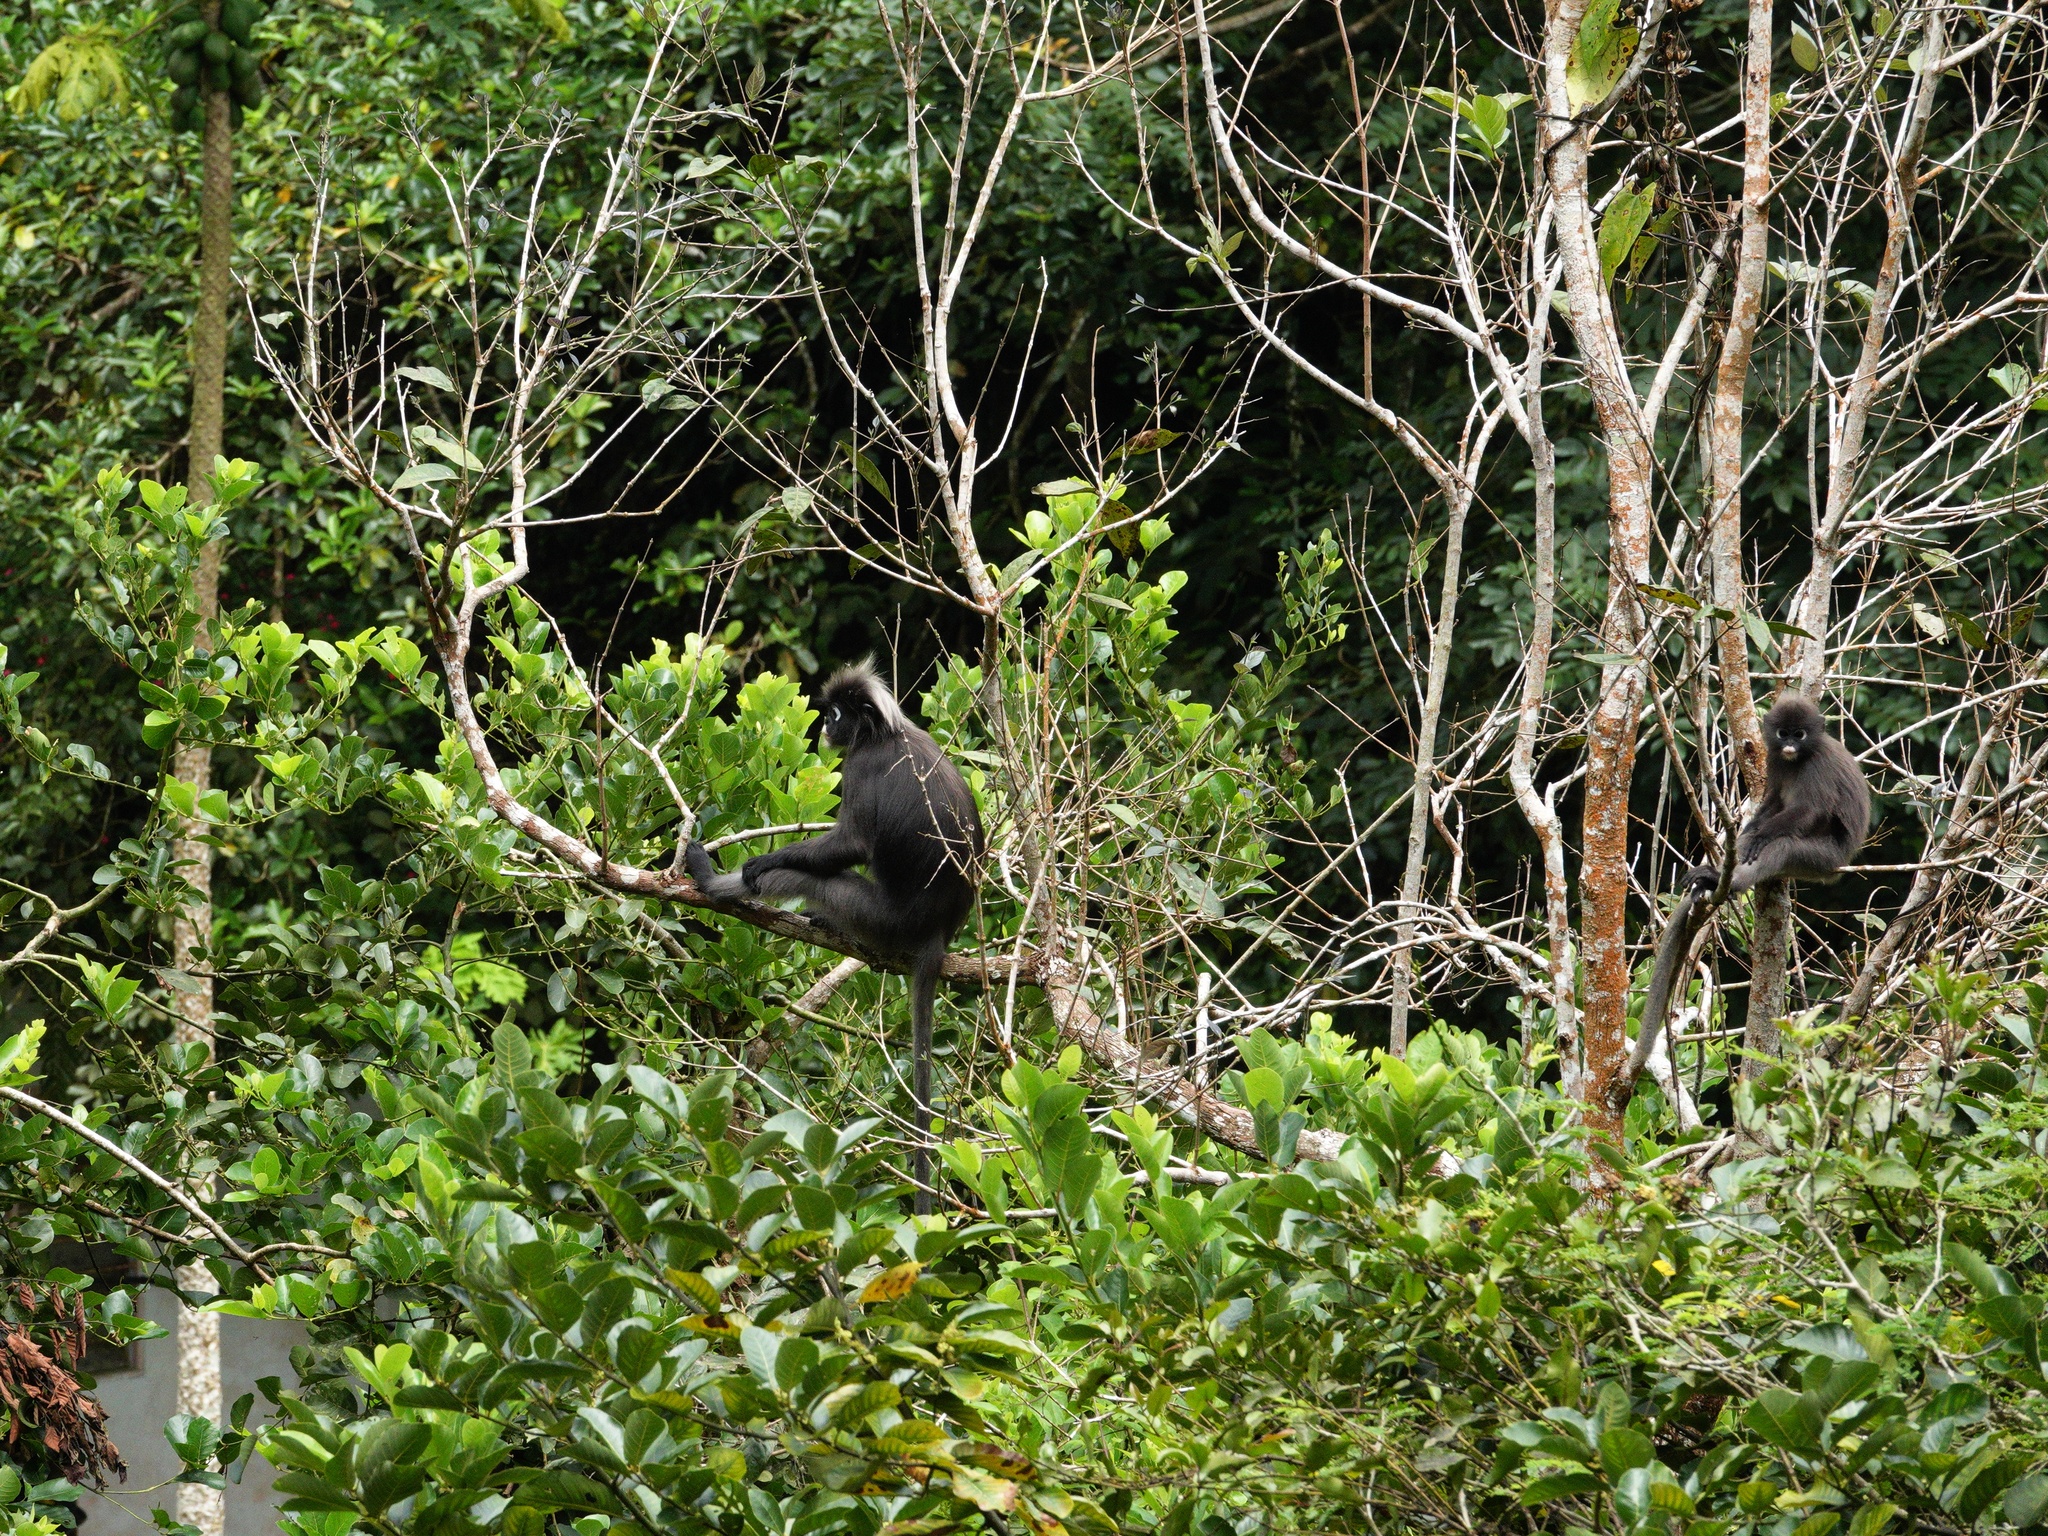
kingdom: Animalia
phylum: Chordata
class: Mammalia
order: Primates
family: Cercopithecidae
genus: Trachypithecus
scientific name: Trachypithecus obscurus
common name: Dusky leaf-monkey
